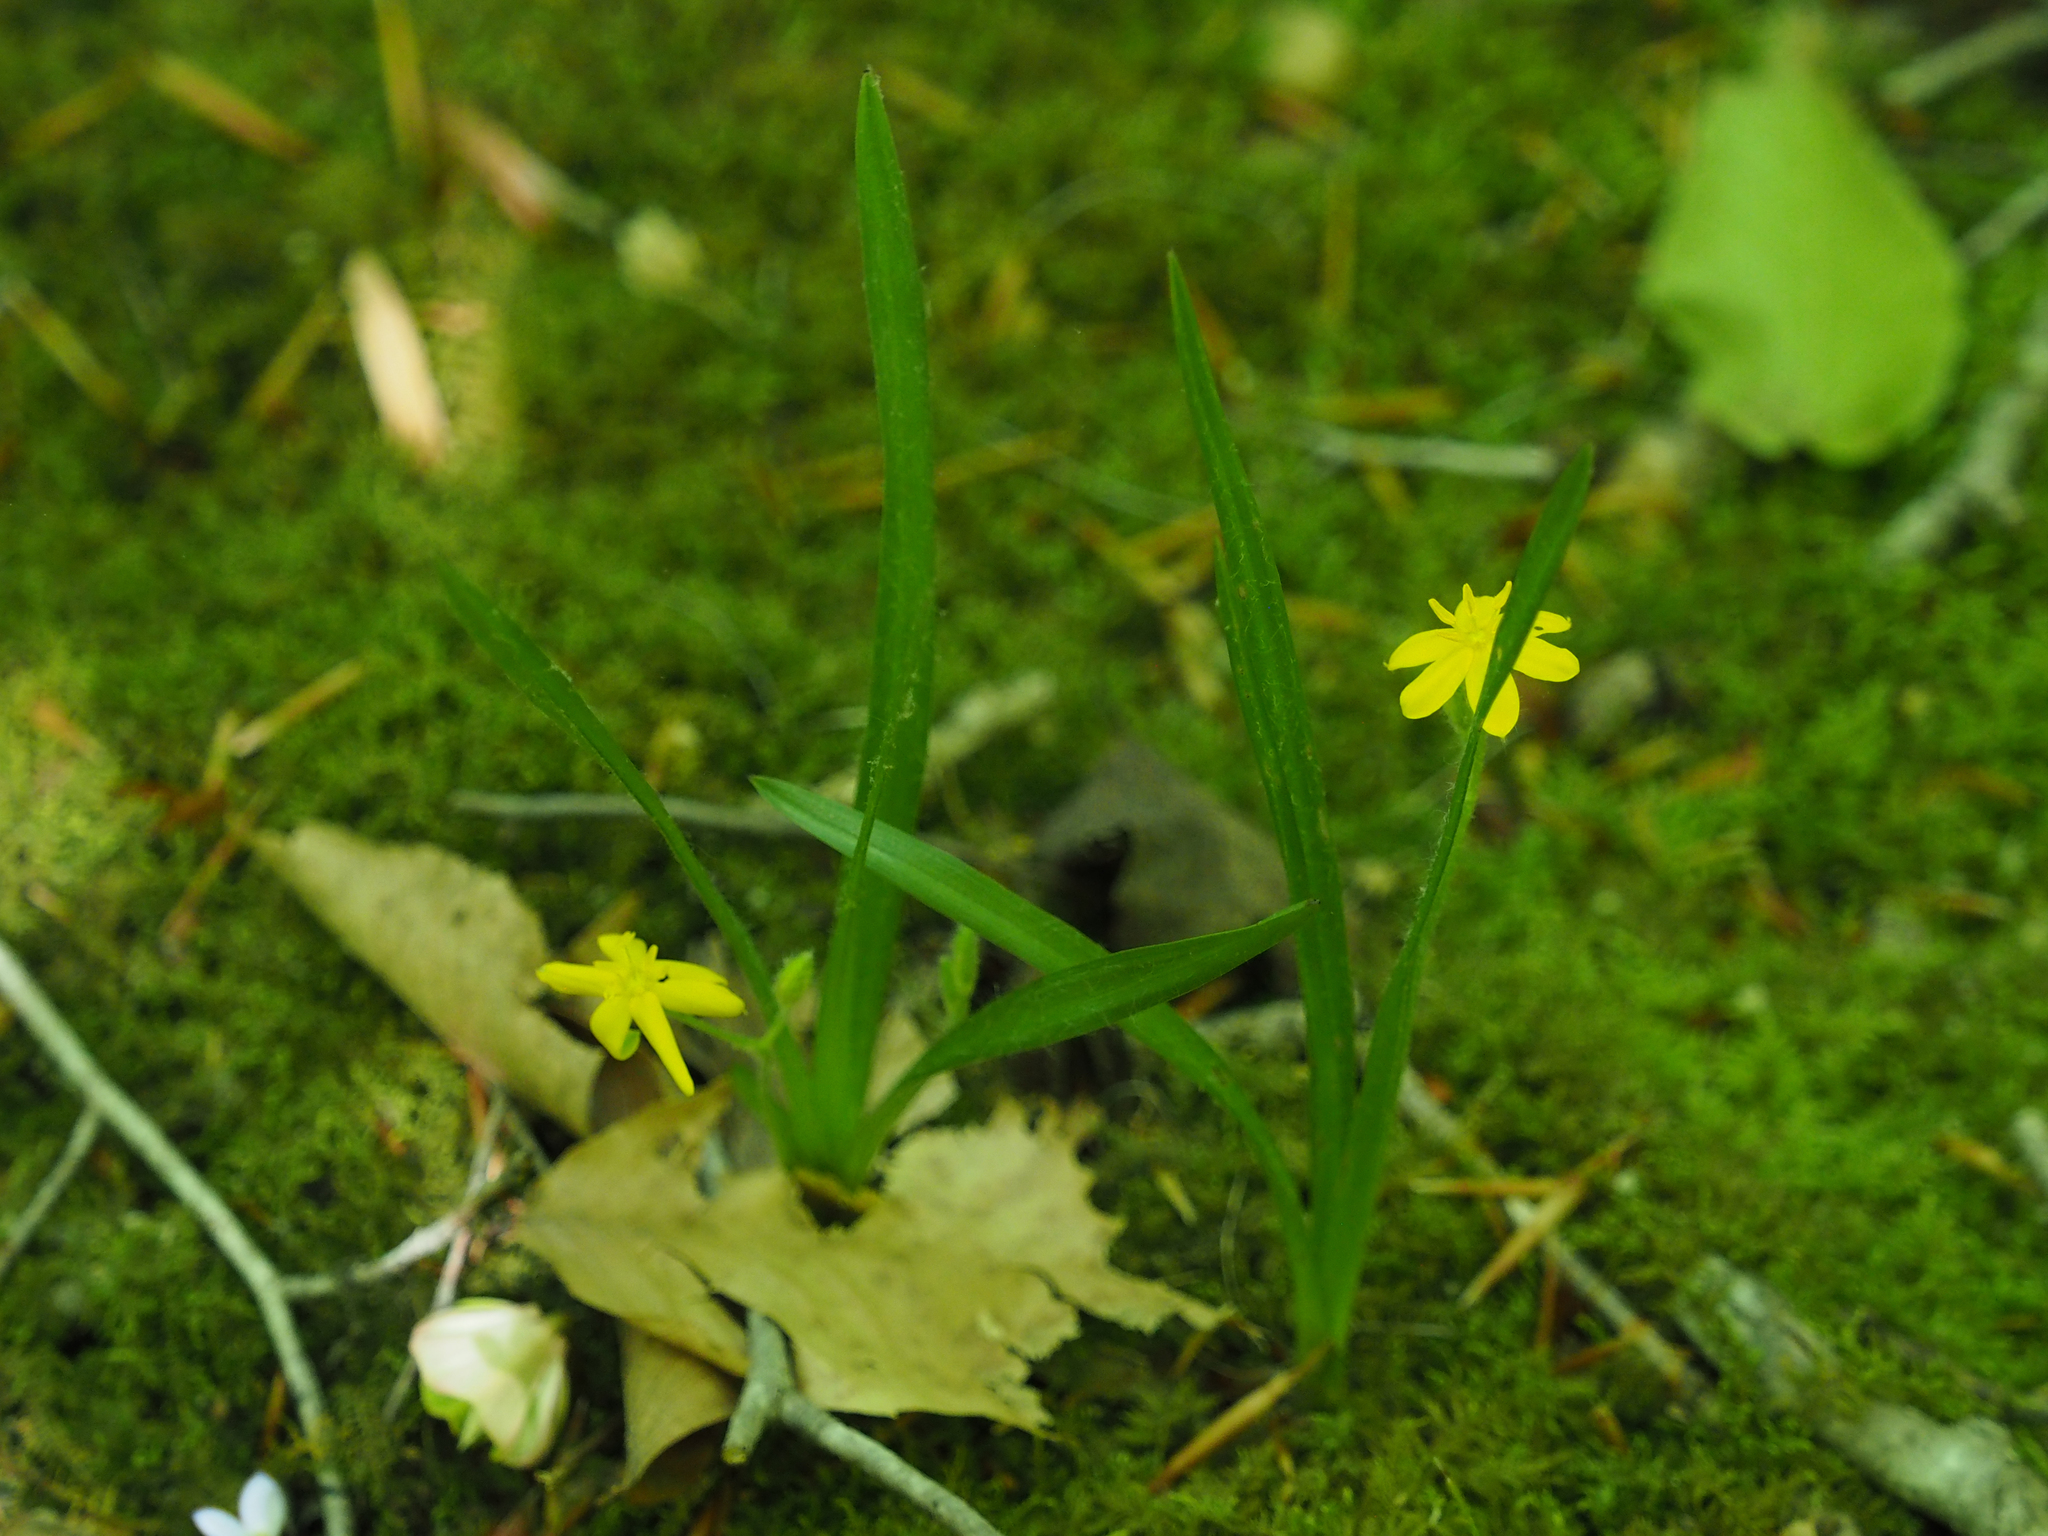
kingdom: Plantae
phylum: Tracheophyta
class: Liliopsida
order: Asparagales
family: Hypoxidaceae
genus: Hypoxis
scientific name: Hypoxis hirsuta
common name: Common goldstar
